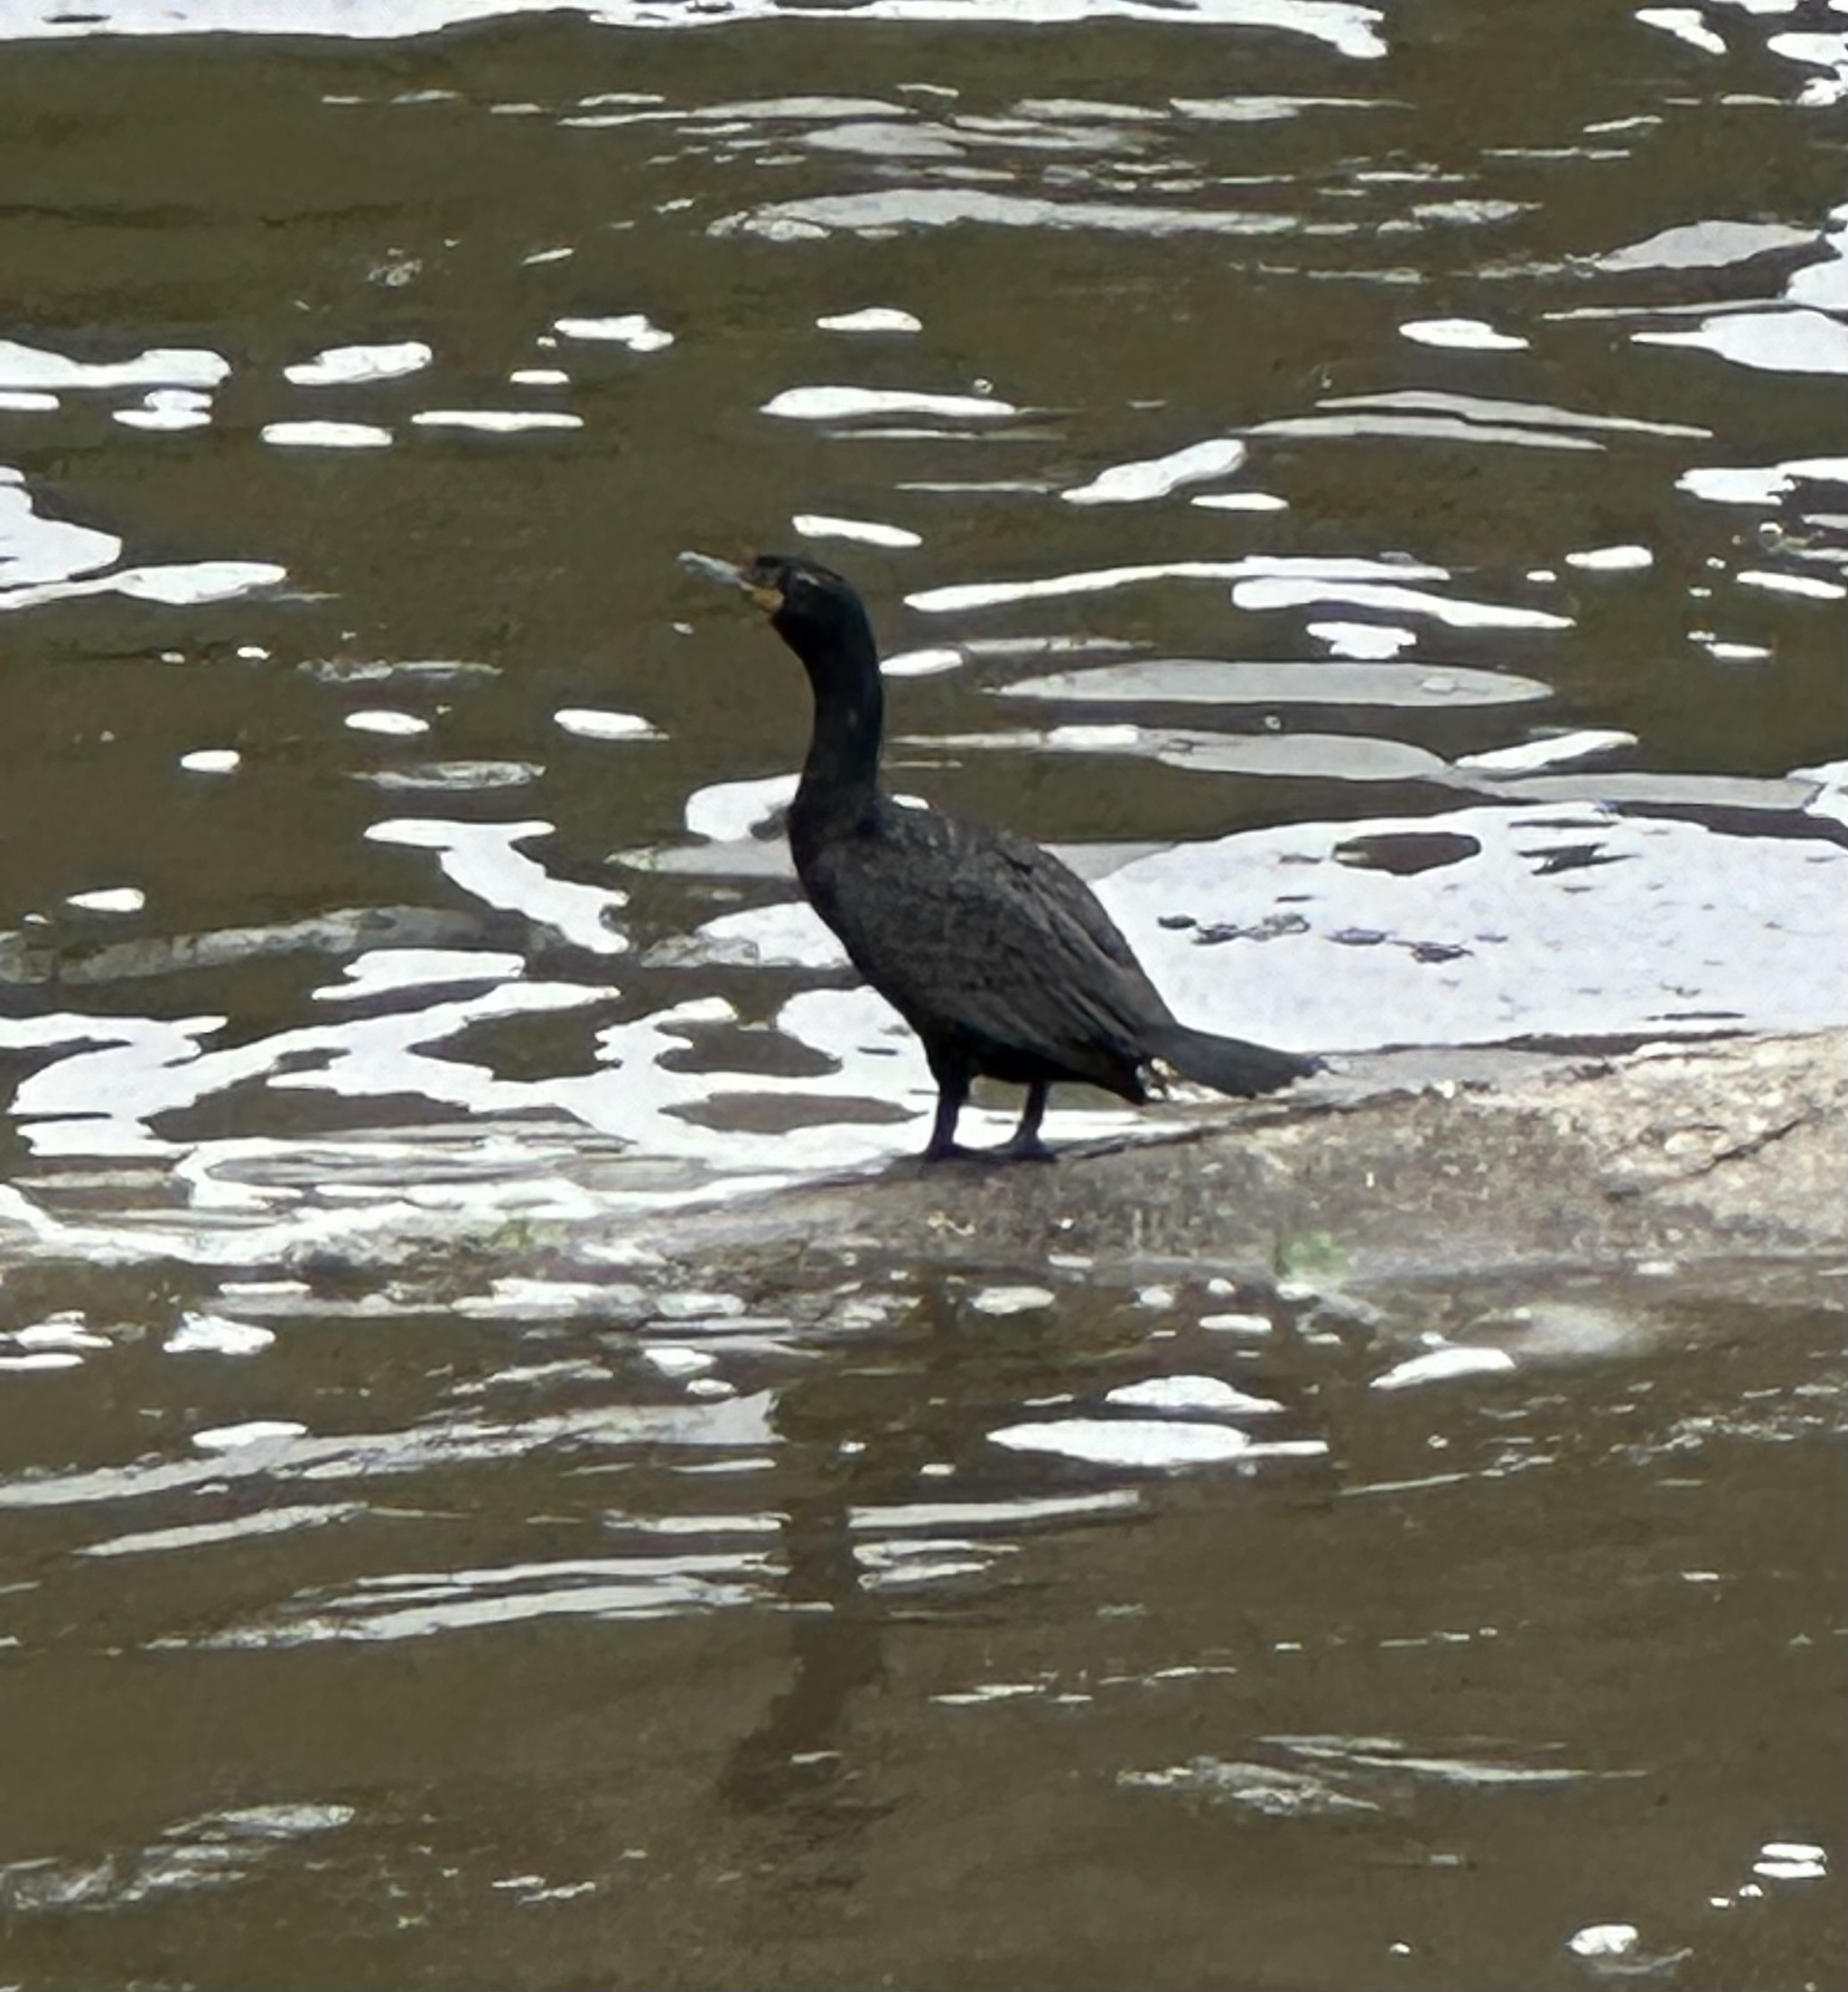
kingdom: Animalia
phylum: Chordata
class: Aves
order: Suliformes
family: Phalacrocoracidae
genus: Phalacrocorax
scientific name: Phalacrocorax auritus
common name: Double-crested cormorant
